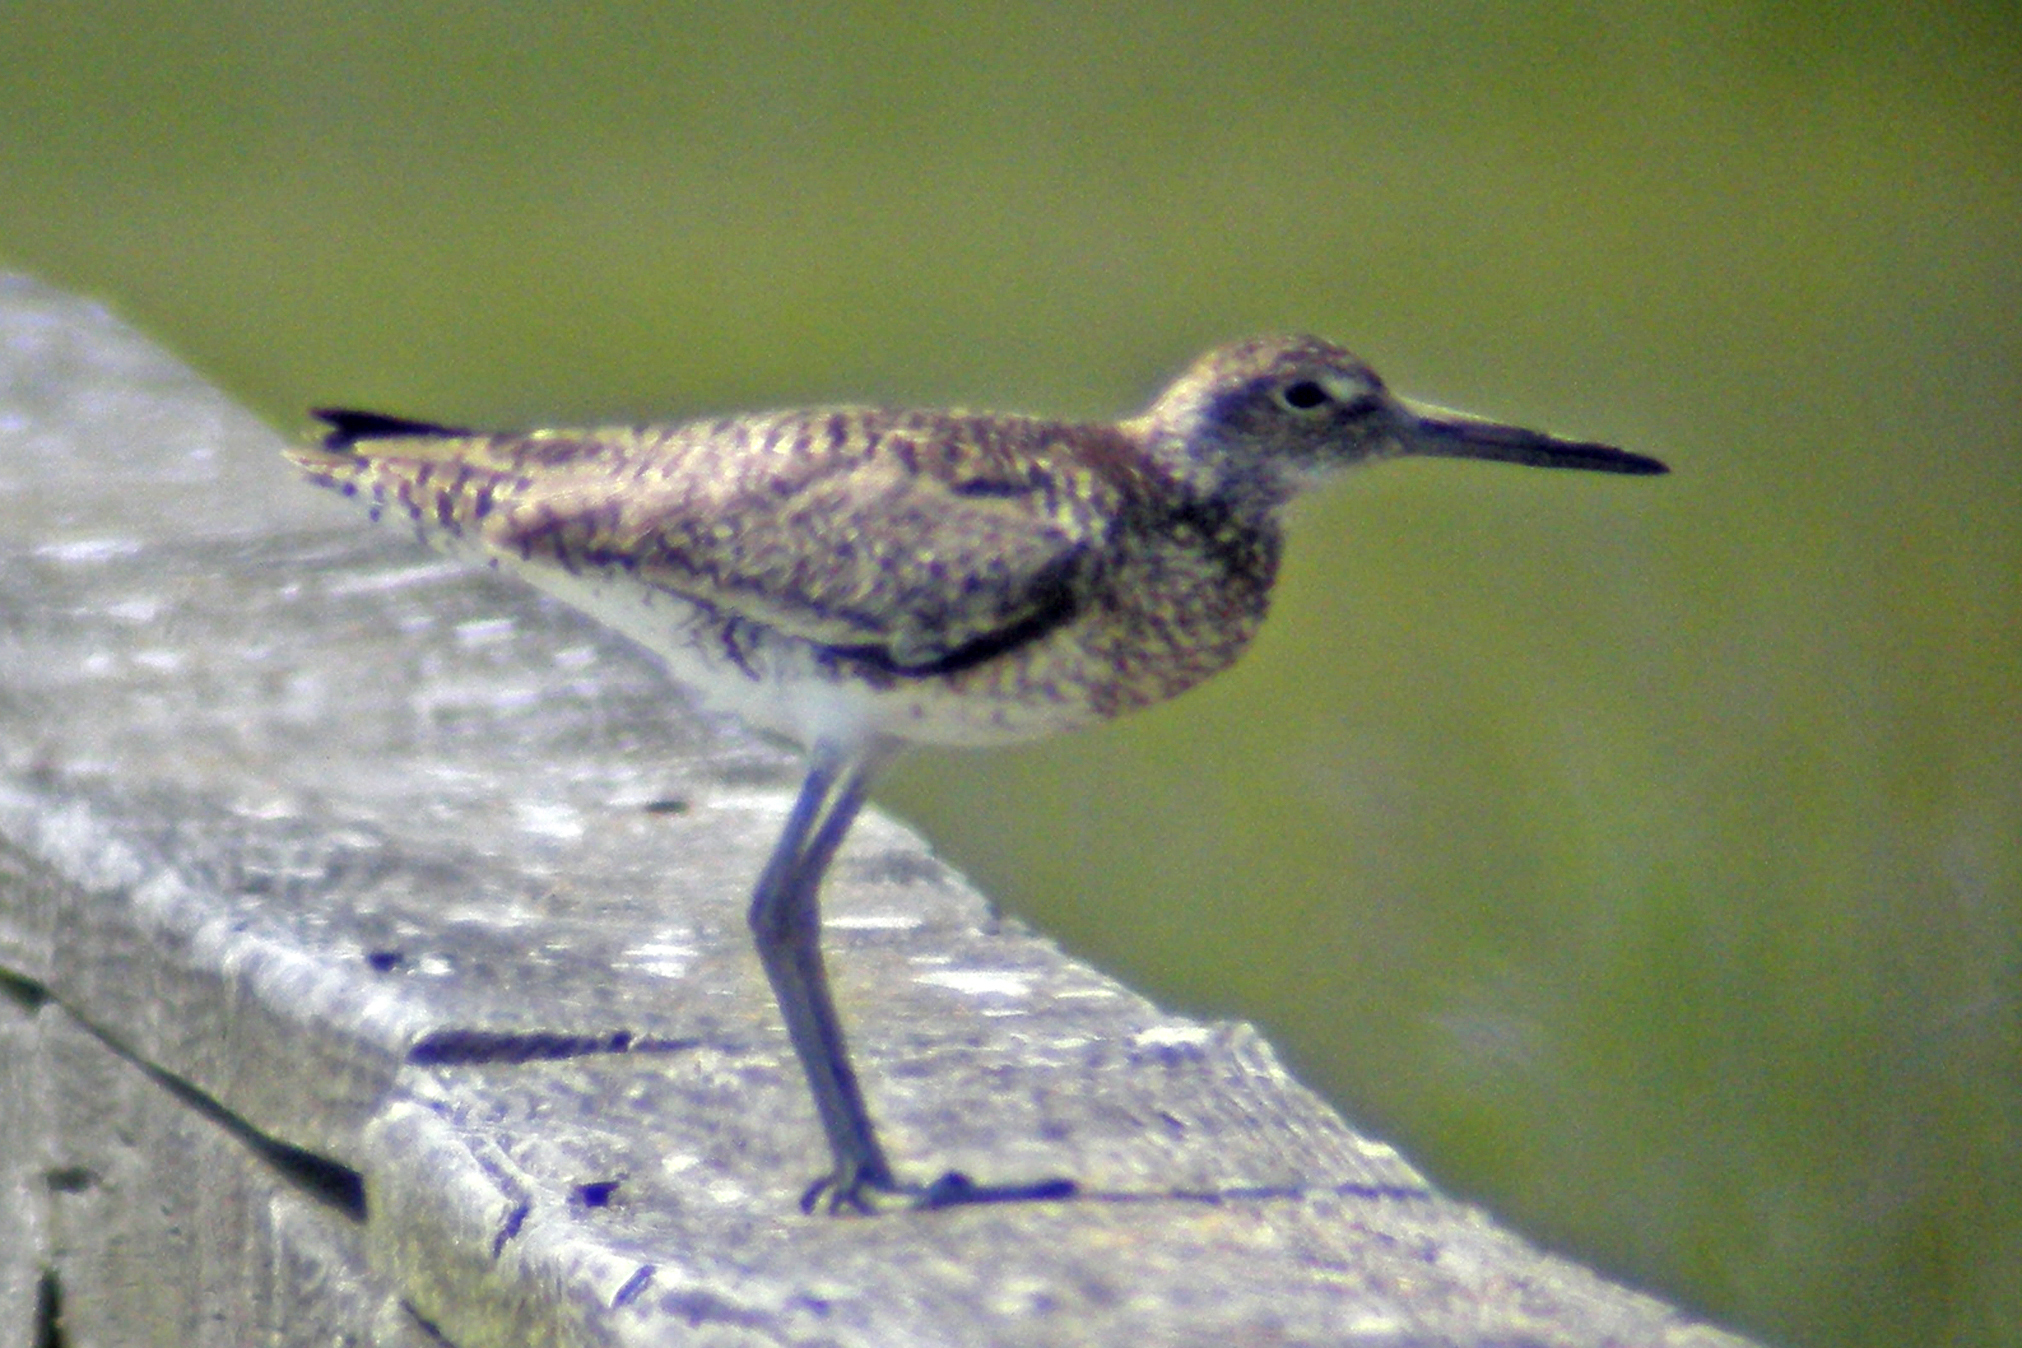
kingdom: Animalia
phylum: Chordata
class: Aves
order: Charadriiformes
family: Scolopacidae
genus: Tringa
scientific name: Tringa semipalmata
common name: Willet
